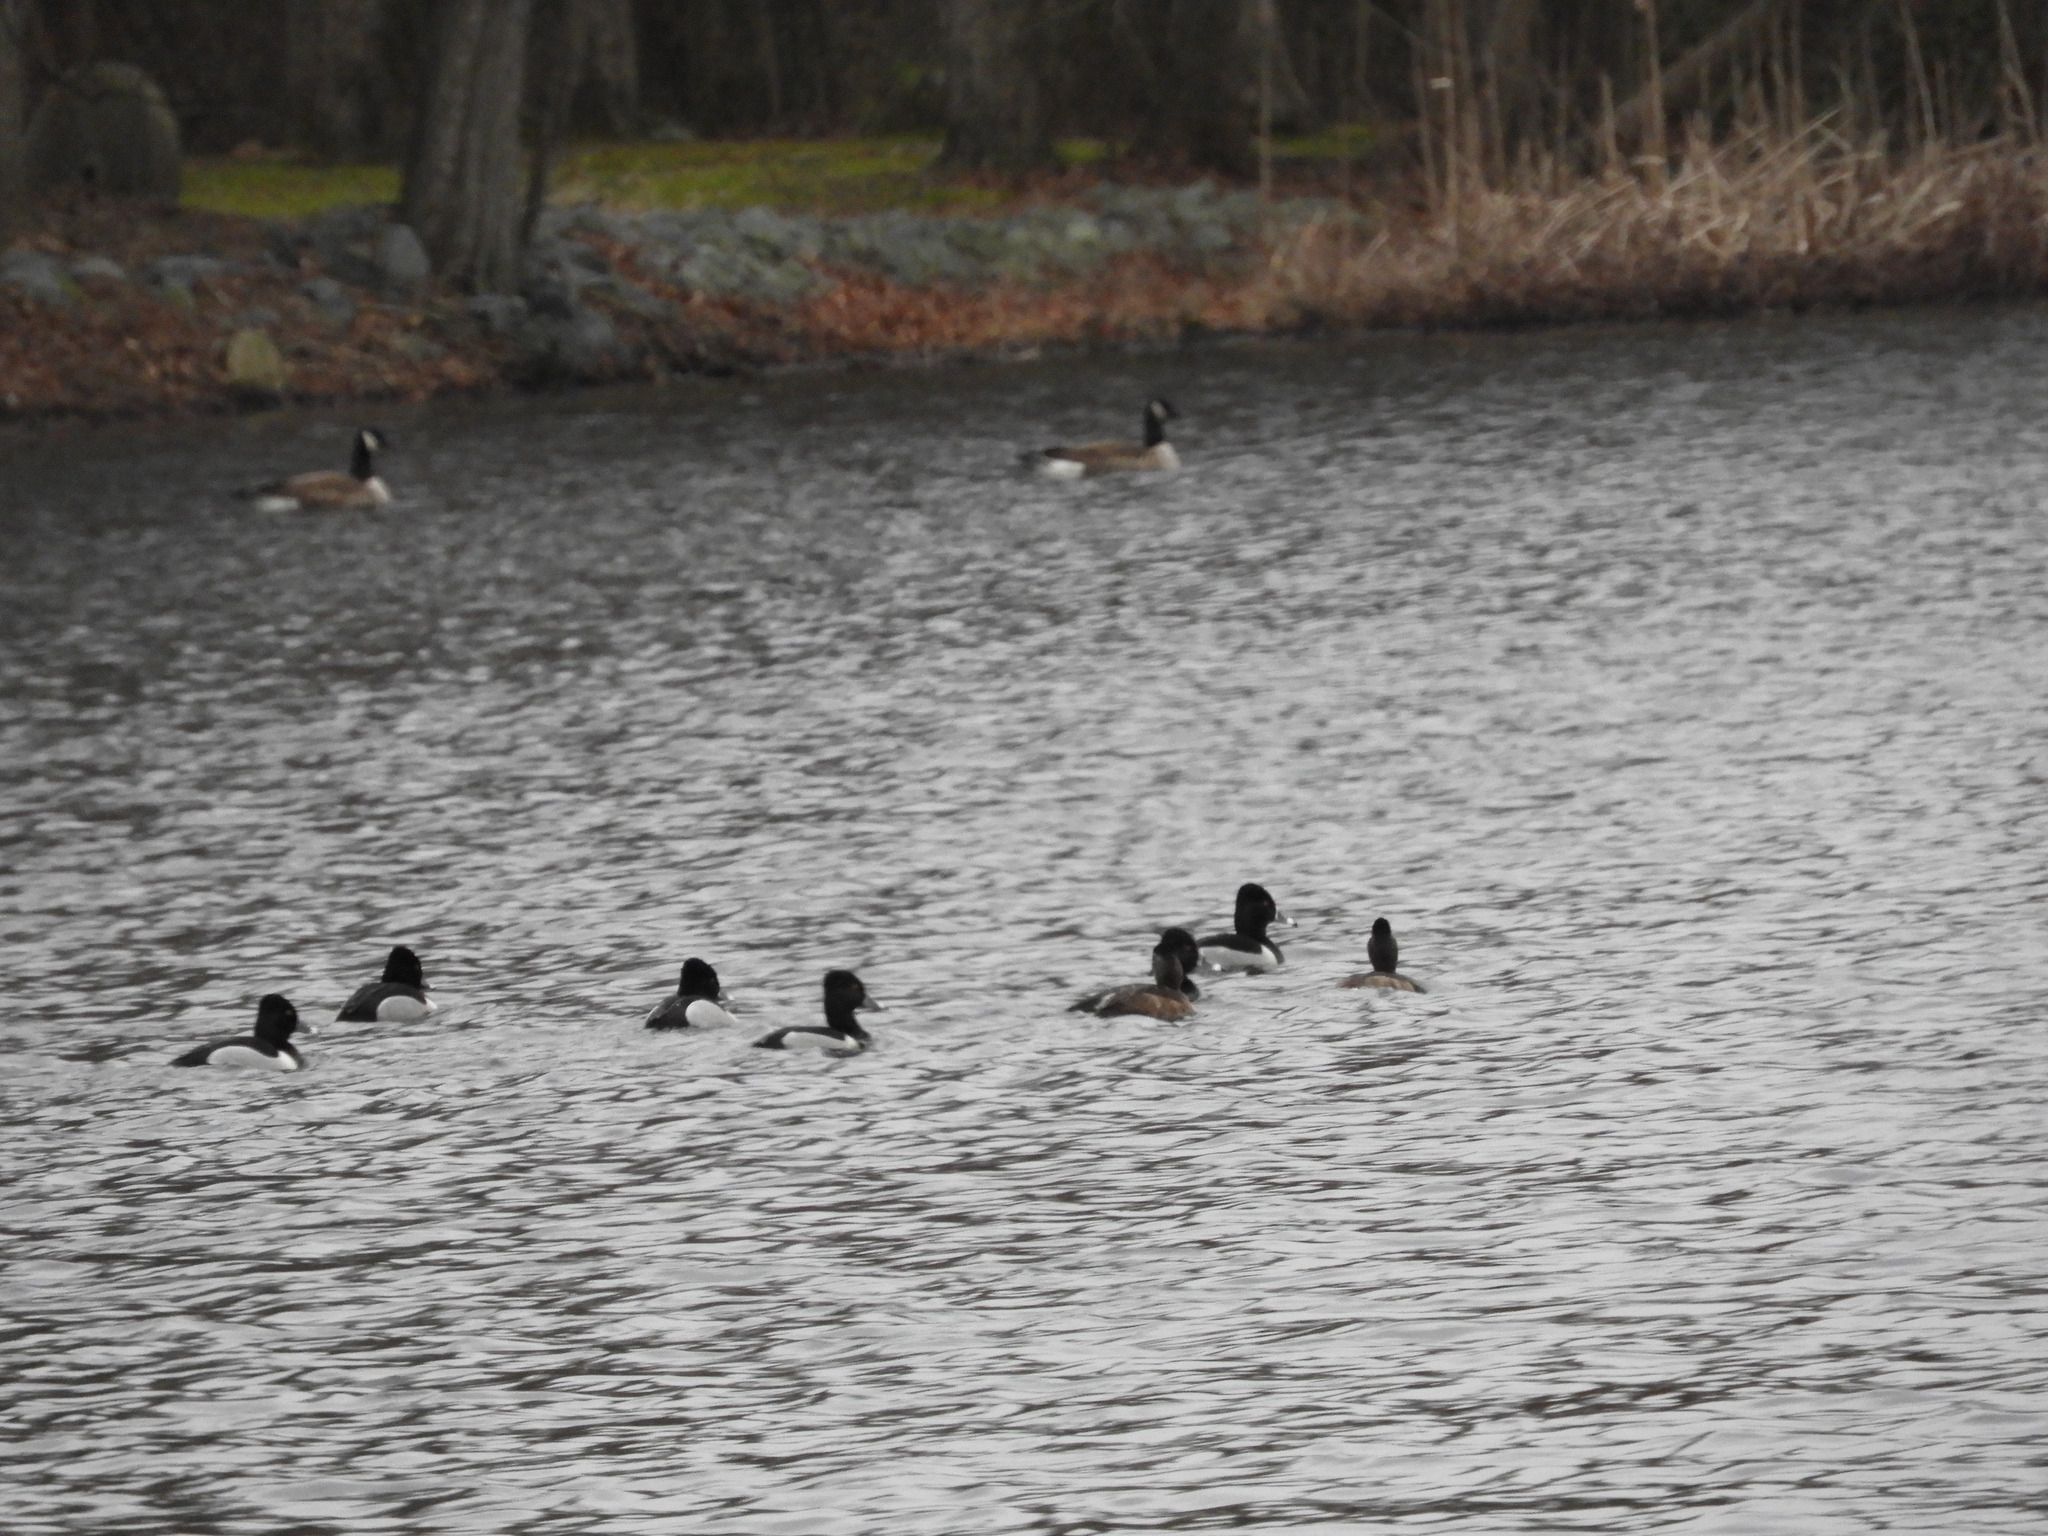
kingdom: Animalia
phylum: Chordata
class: Aves
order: Anseriformes
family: Anatidae
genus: Aythya
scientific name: Aythya collaris
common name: Ring-necked duck
